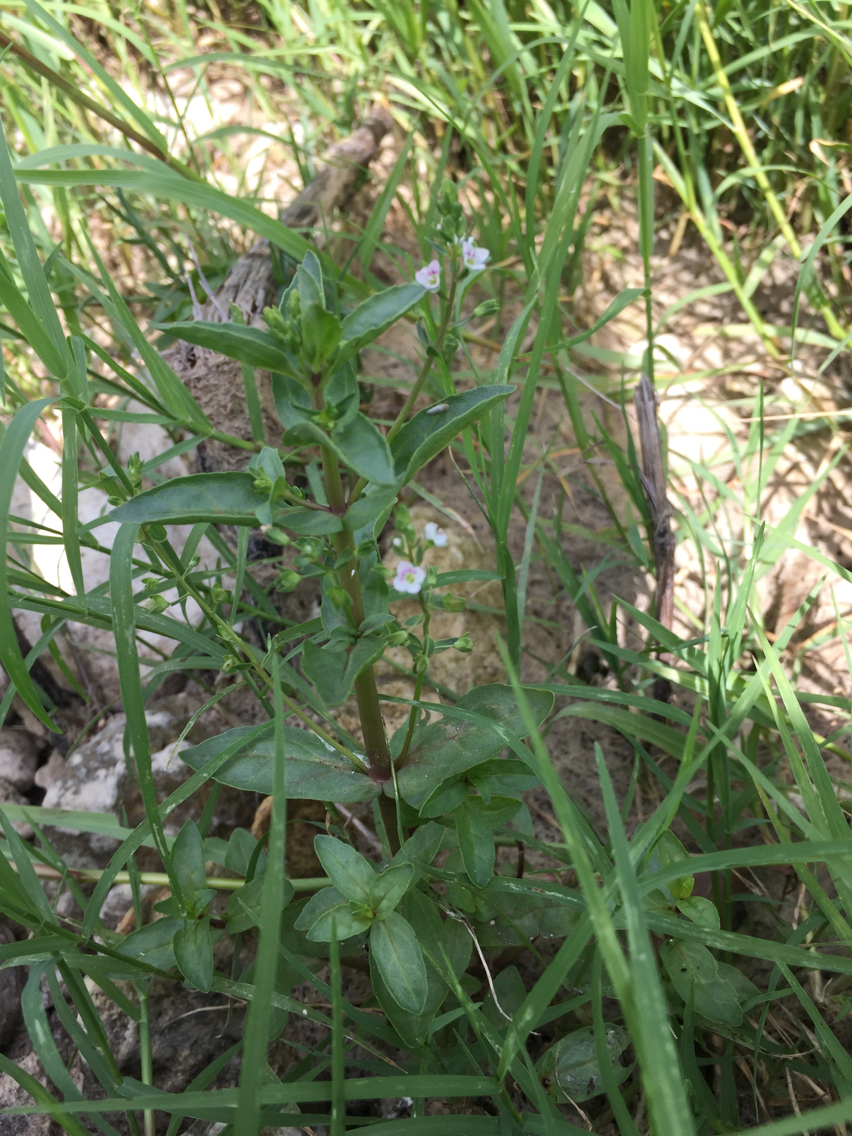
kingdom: Plantae
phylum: Tracheophyta
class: Magnoliopsida
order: Lamiales
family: Plantaginaceae
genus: Veronica
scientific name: Veronica anagallis-aquatica
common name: Water speedwell
